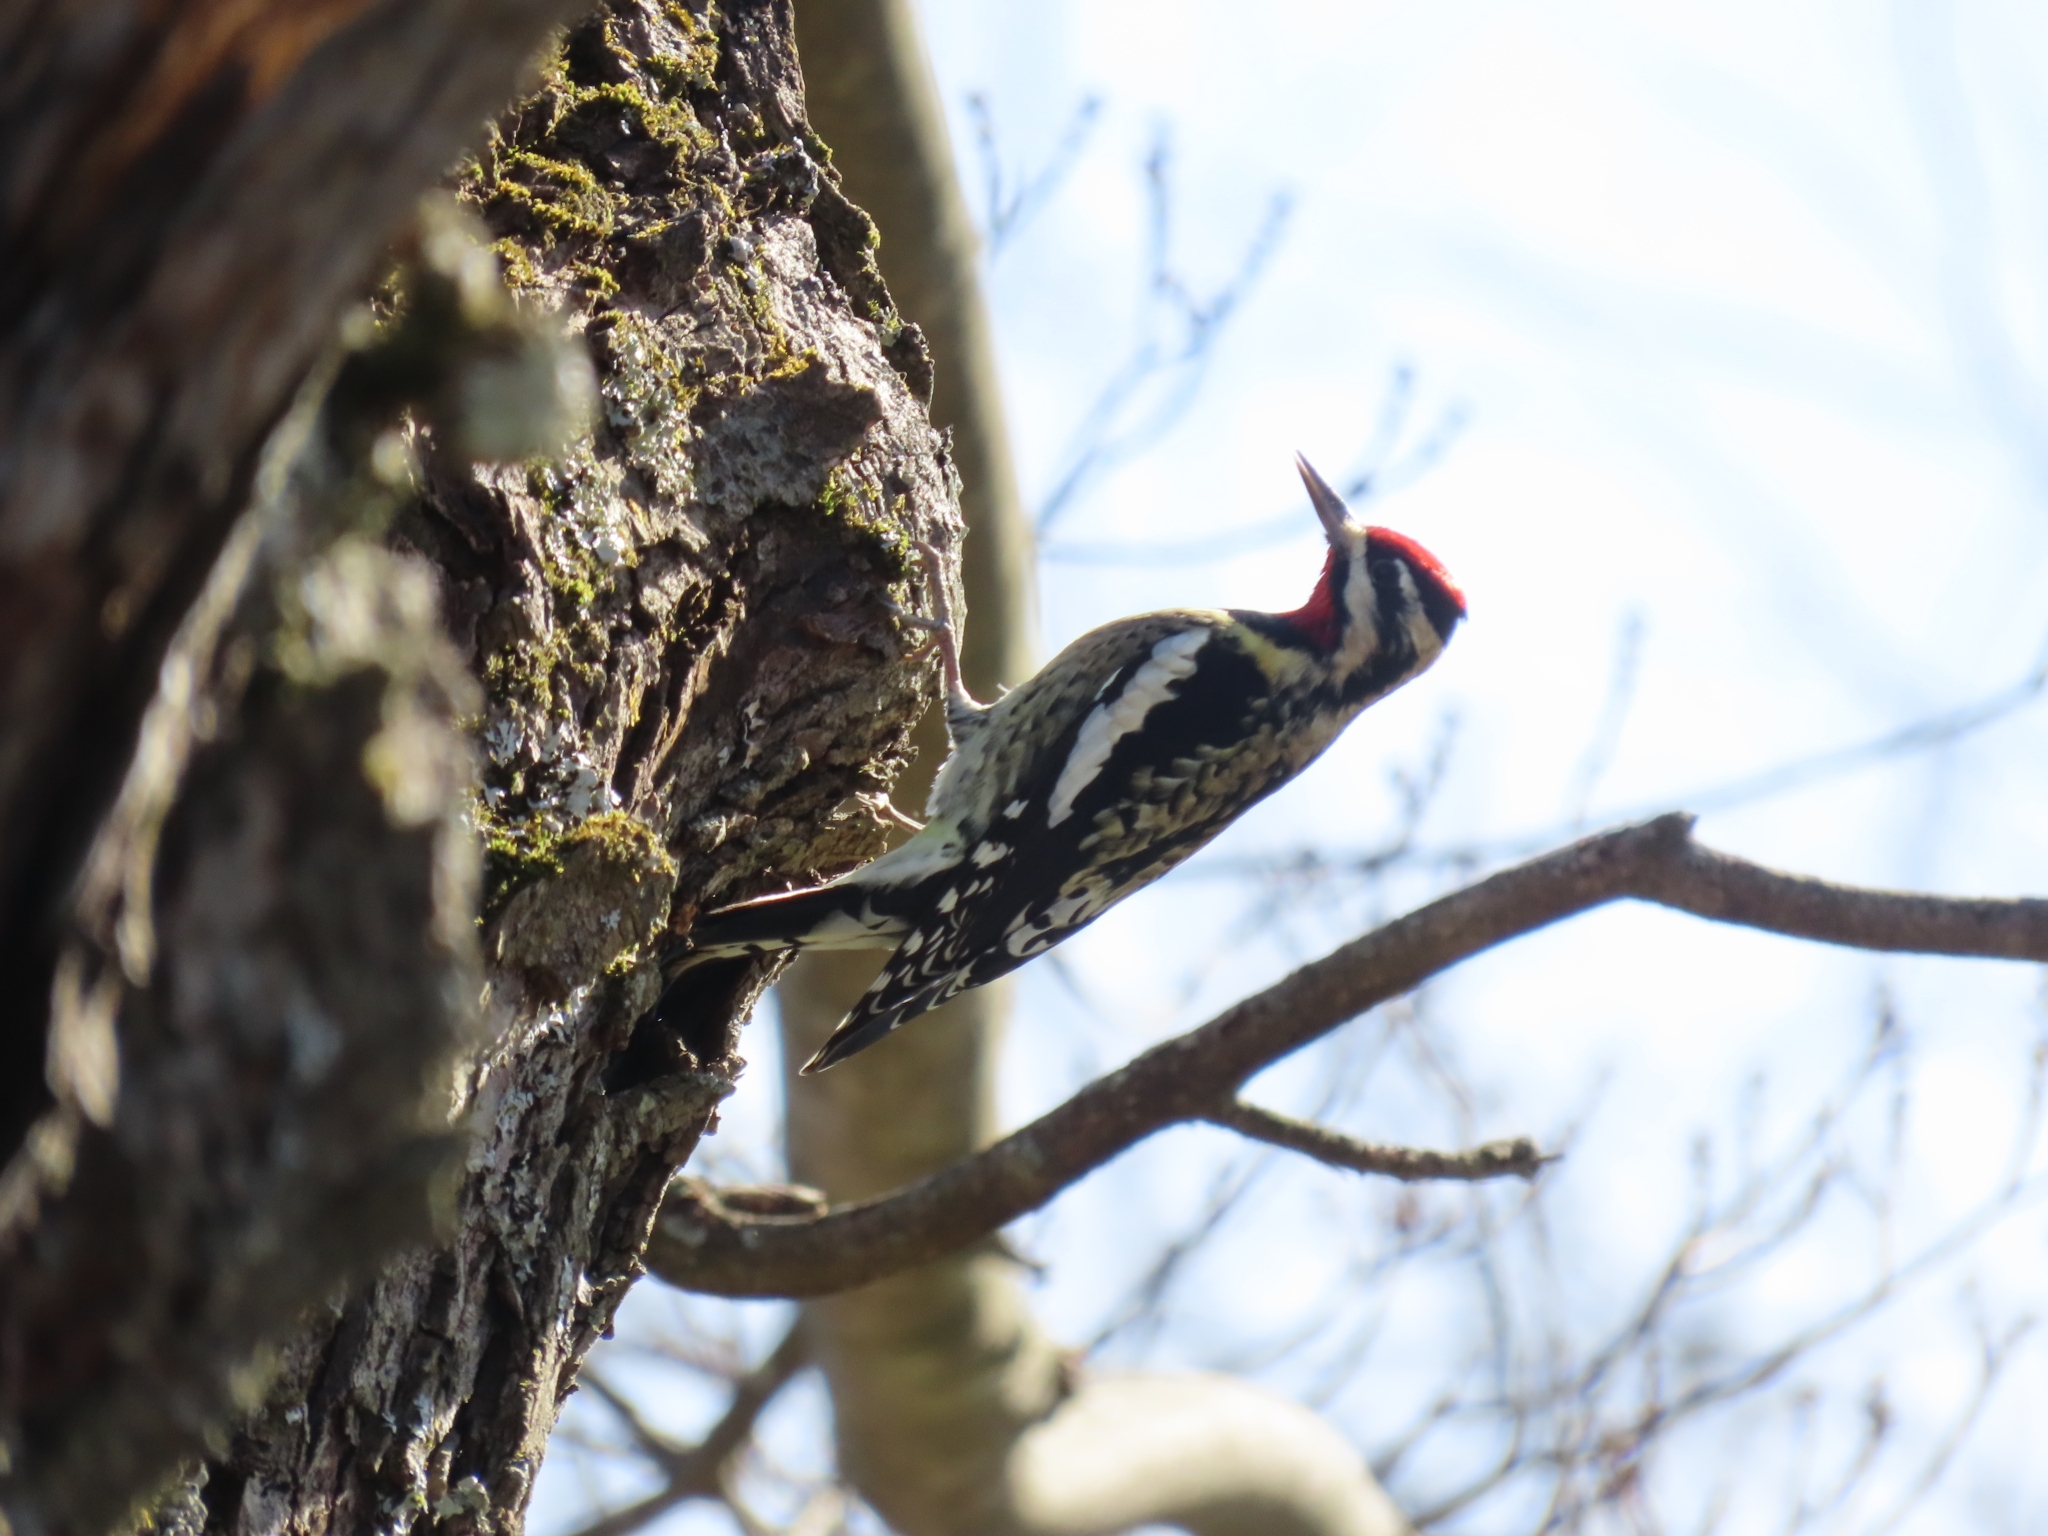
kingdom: Animalia
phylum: Chordata
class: Aves
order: Piciformes
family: Picidae
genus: Sphyrapicus
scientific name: Sphyrapicus varius
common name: Yellow-bellied sapsucker
